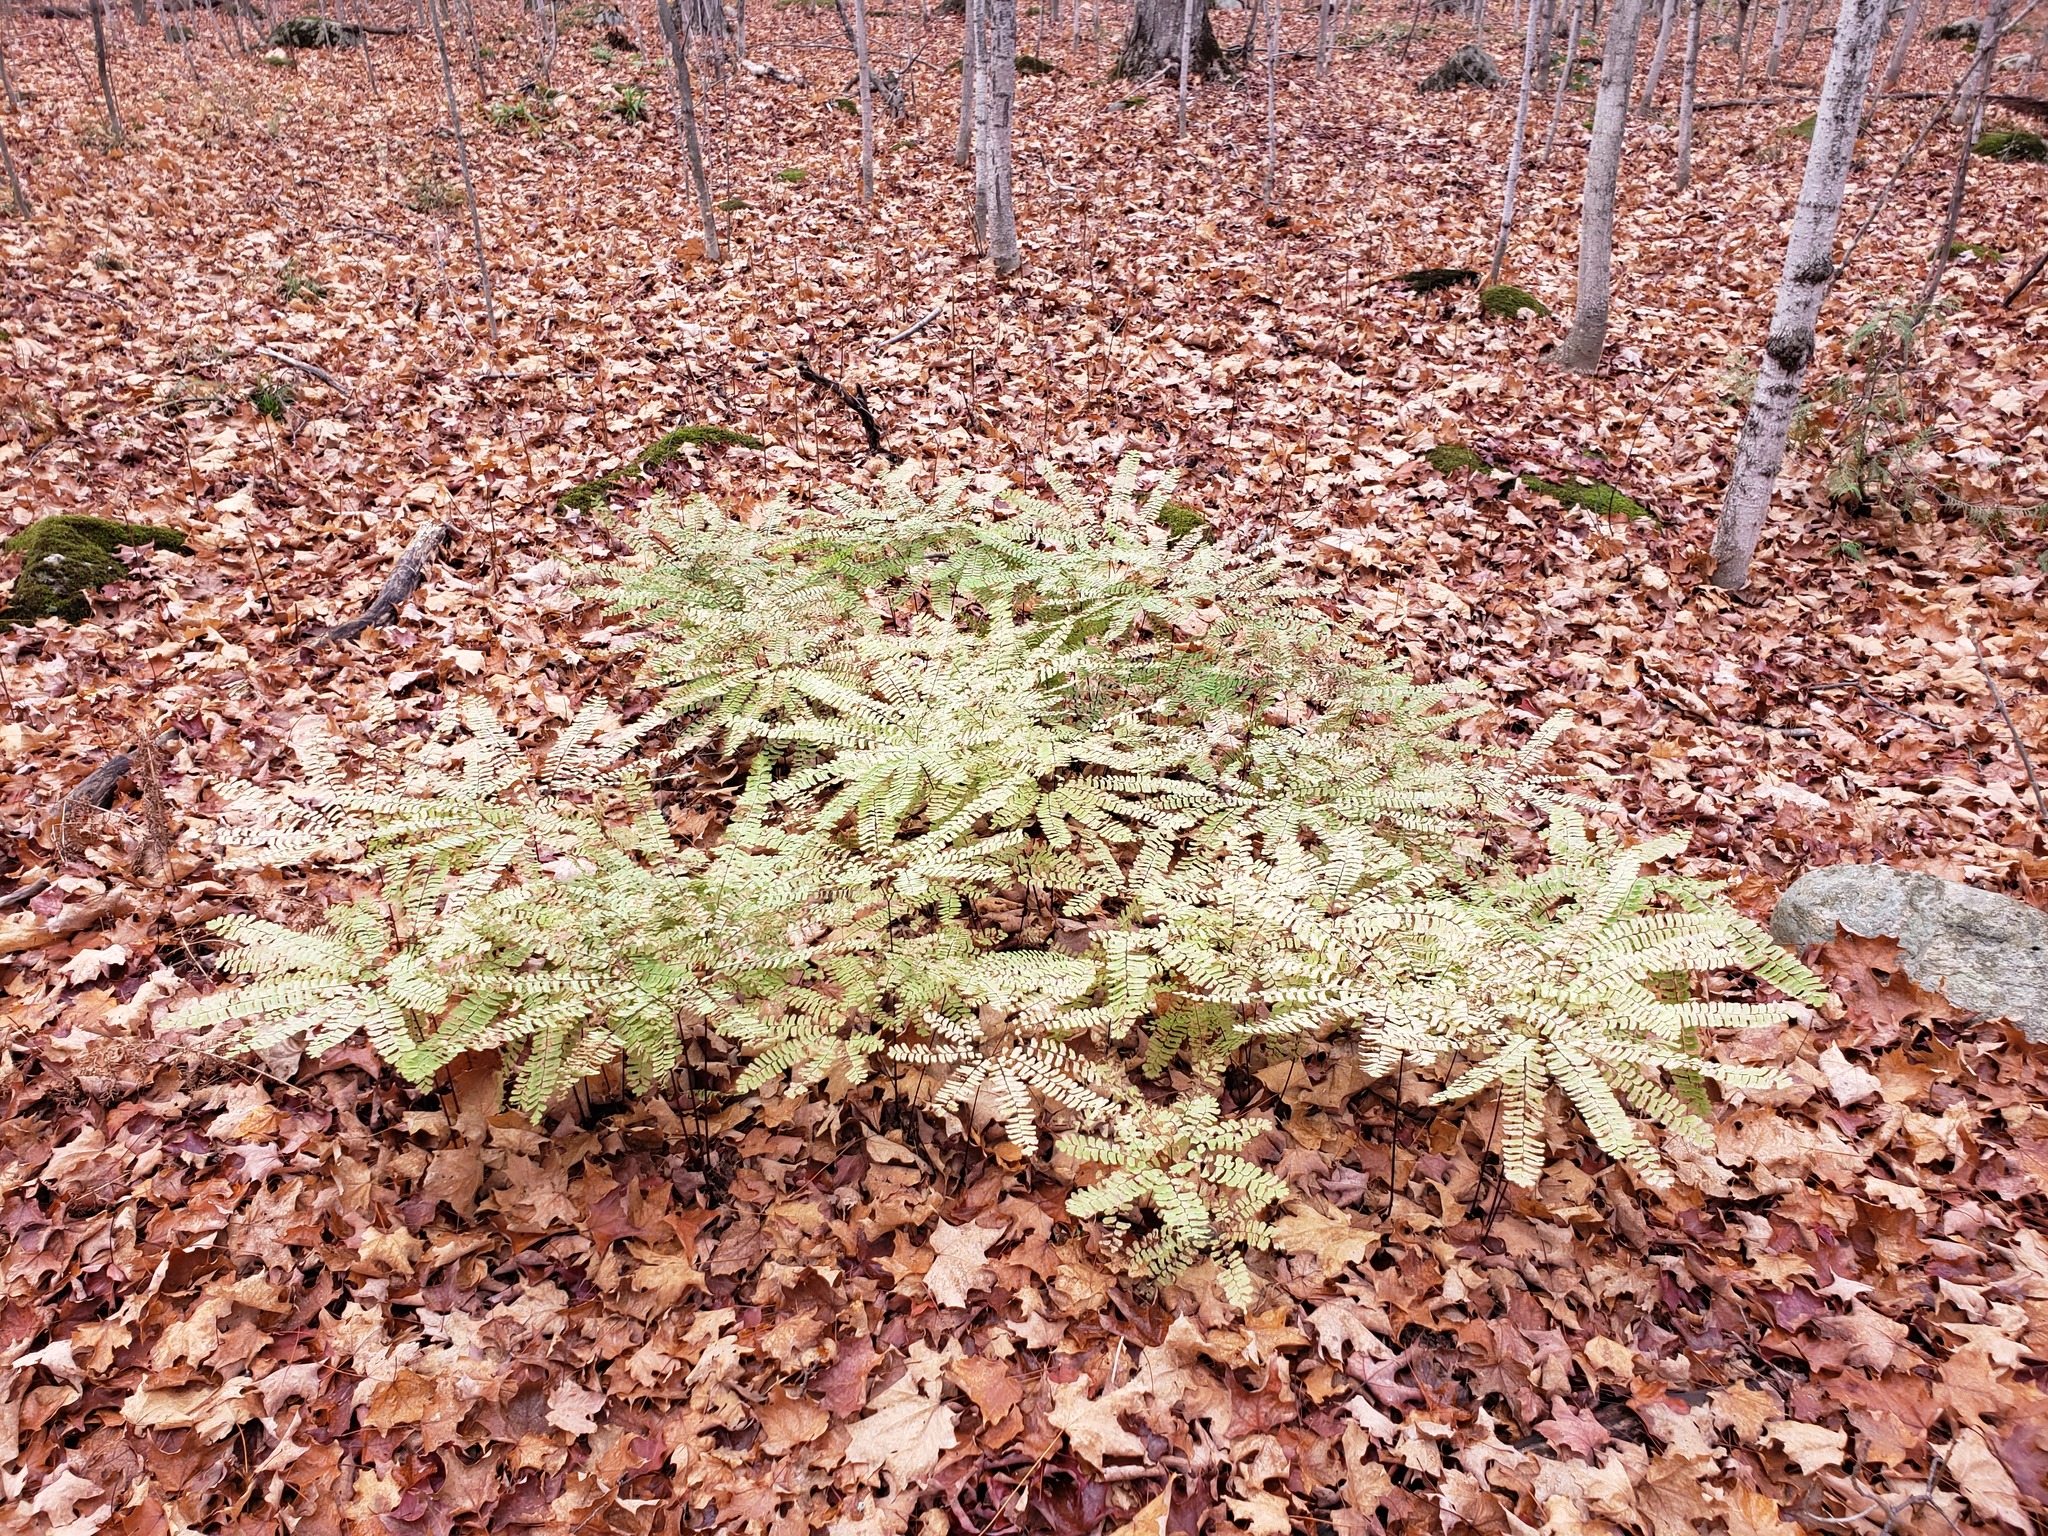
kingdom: Plantae
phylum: Tracheophyta
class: Polypodiopsida
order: Polypodiales
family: Pteridaceae
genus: Adiantum
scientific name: Adiantum pedatum
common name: Five-finger fern
